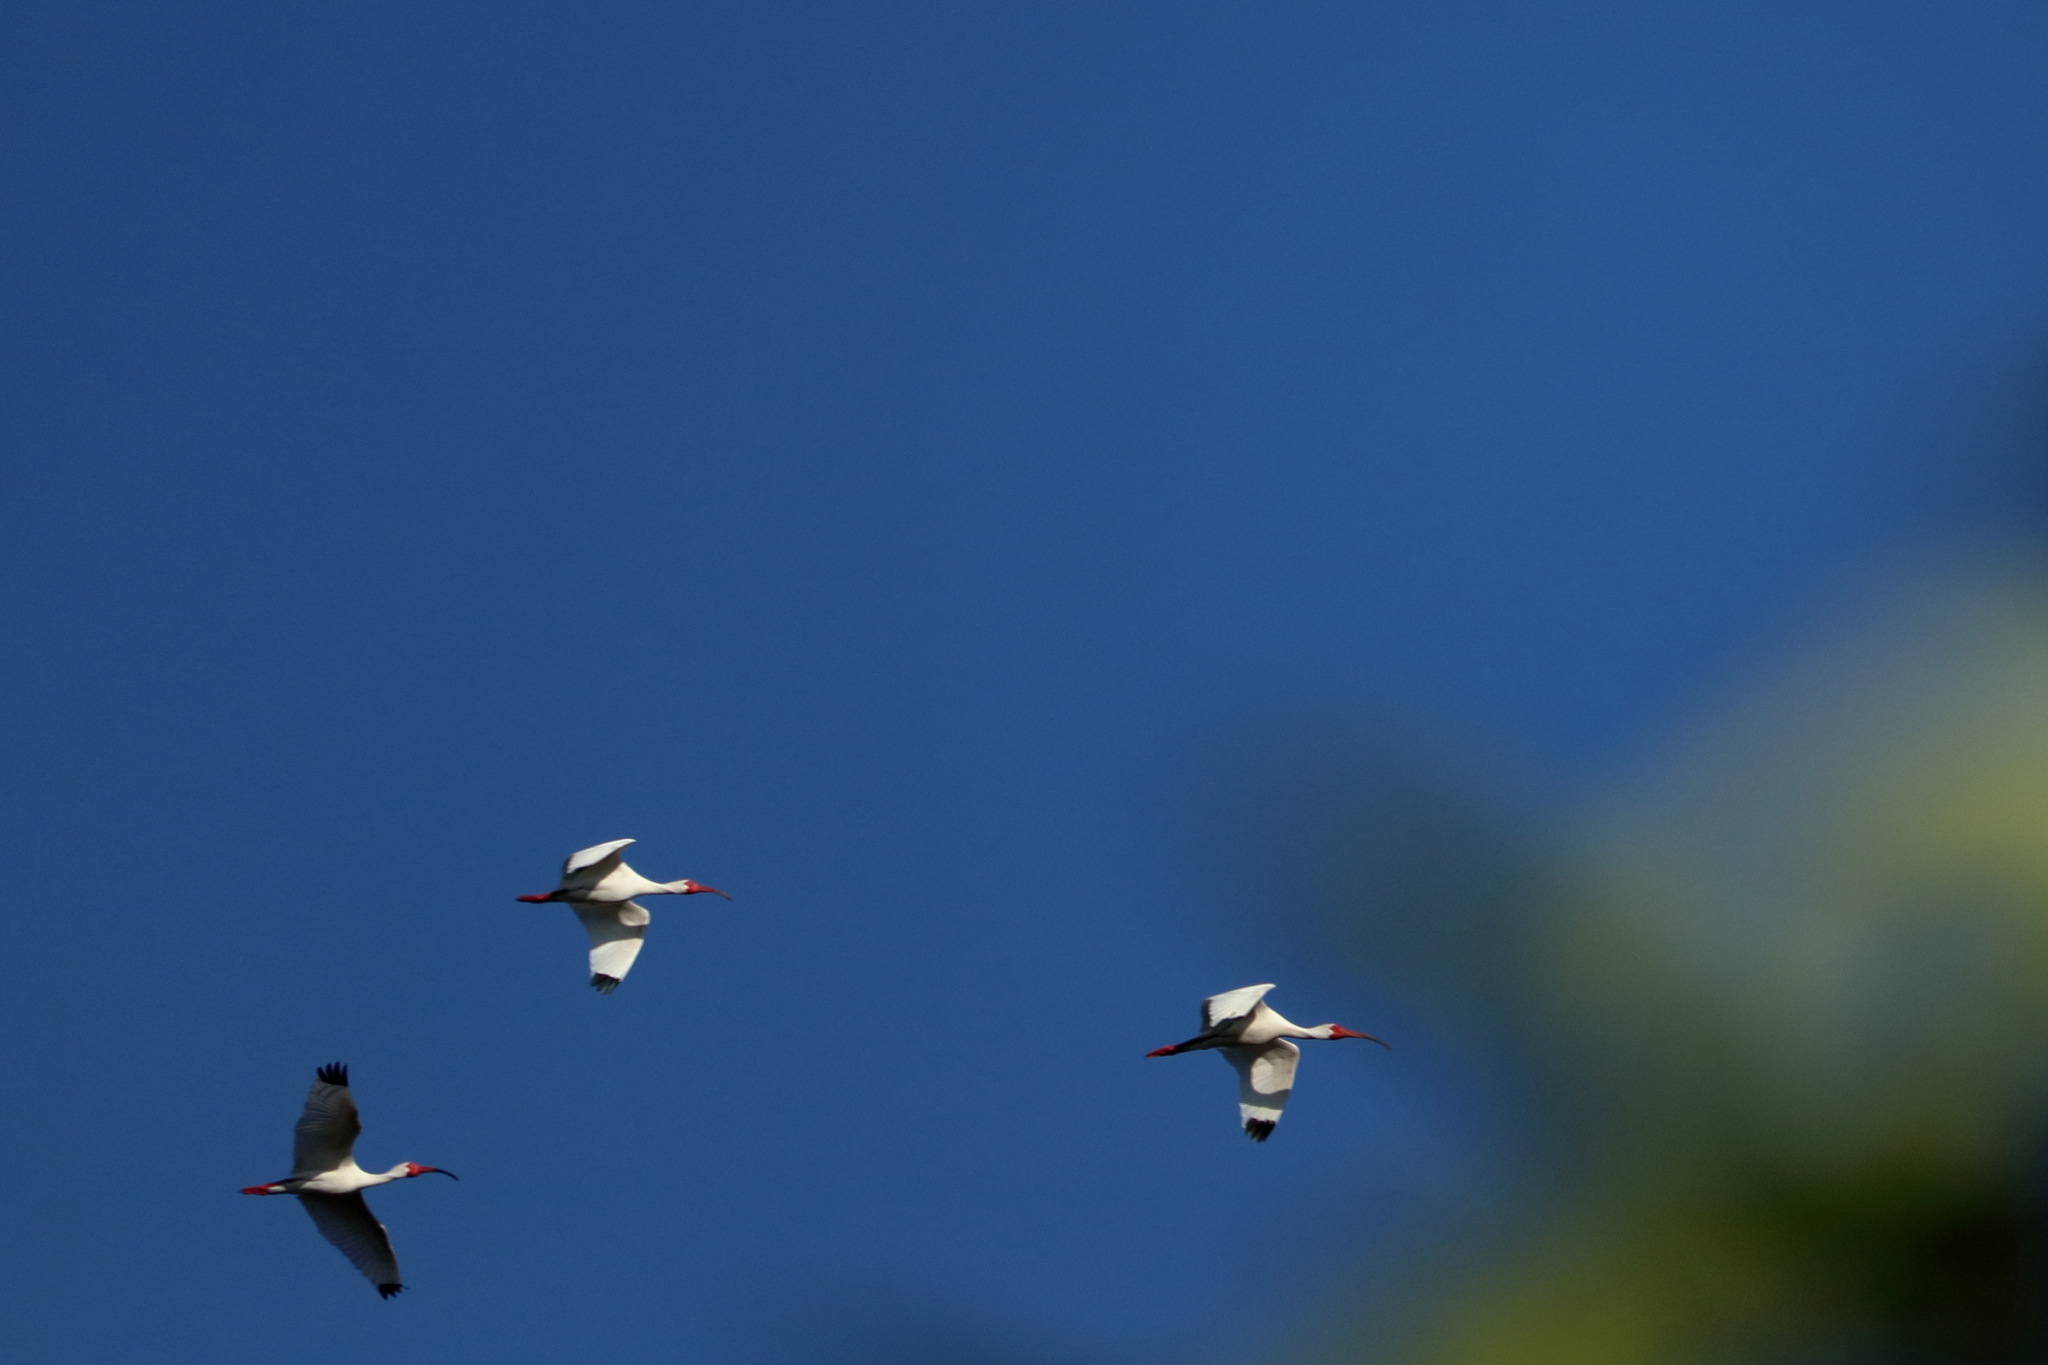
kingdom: Animalia
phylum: Chordata
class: Aves
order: Pelecaniformes
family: Threskiornithidae
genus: Eudocimus
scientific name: Eudocimus albus
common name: White ibis
